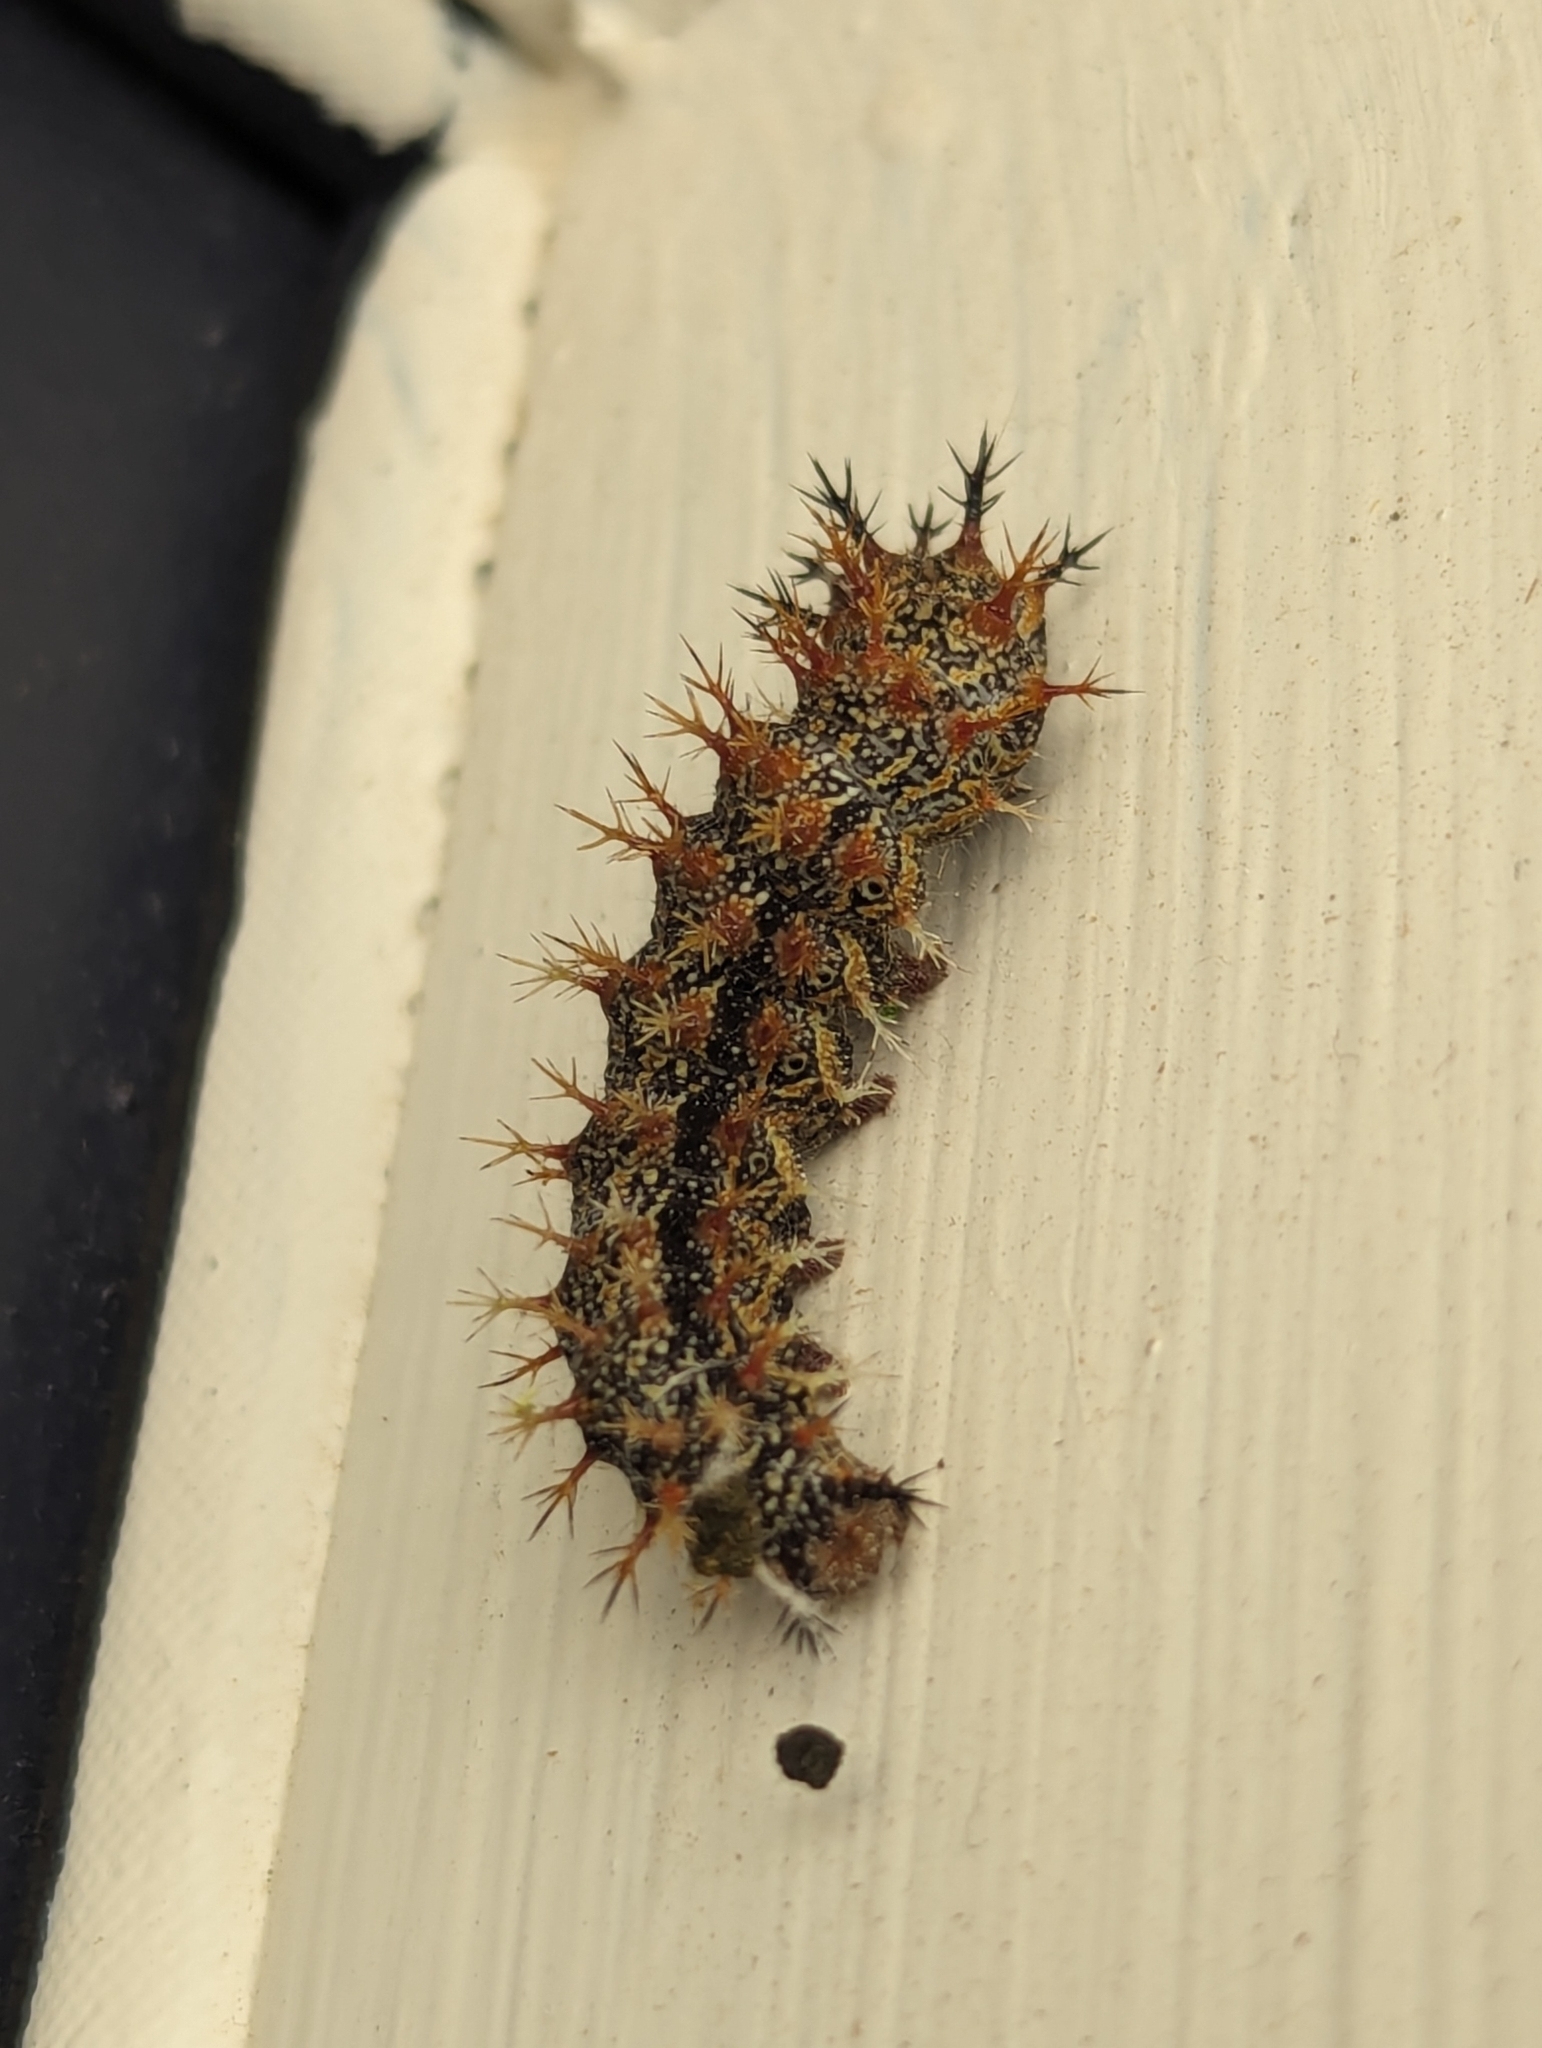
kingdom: Animalia
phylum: Arthropoda
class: Insecta
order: Lepidoptera
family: Nymphalidae
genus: Polygonia
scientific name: Polygonia interrogationis
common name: Question mark
